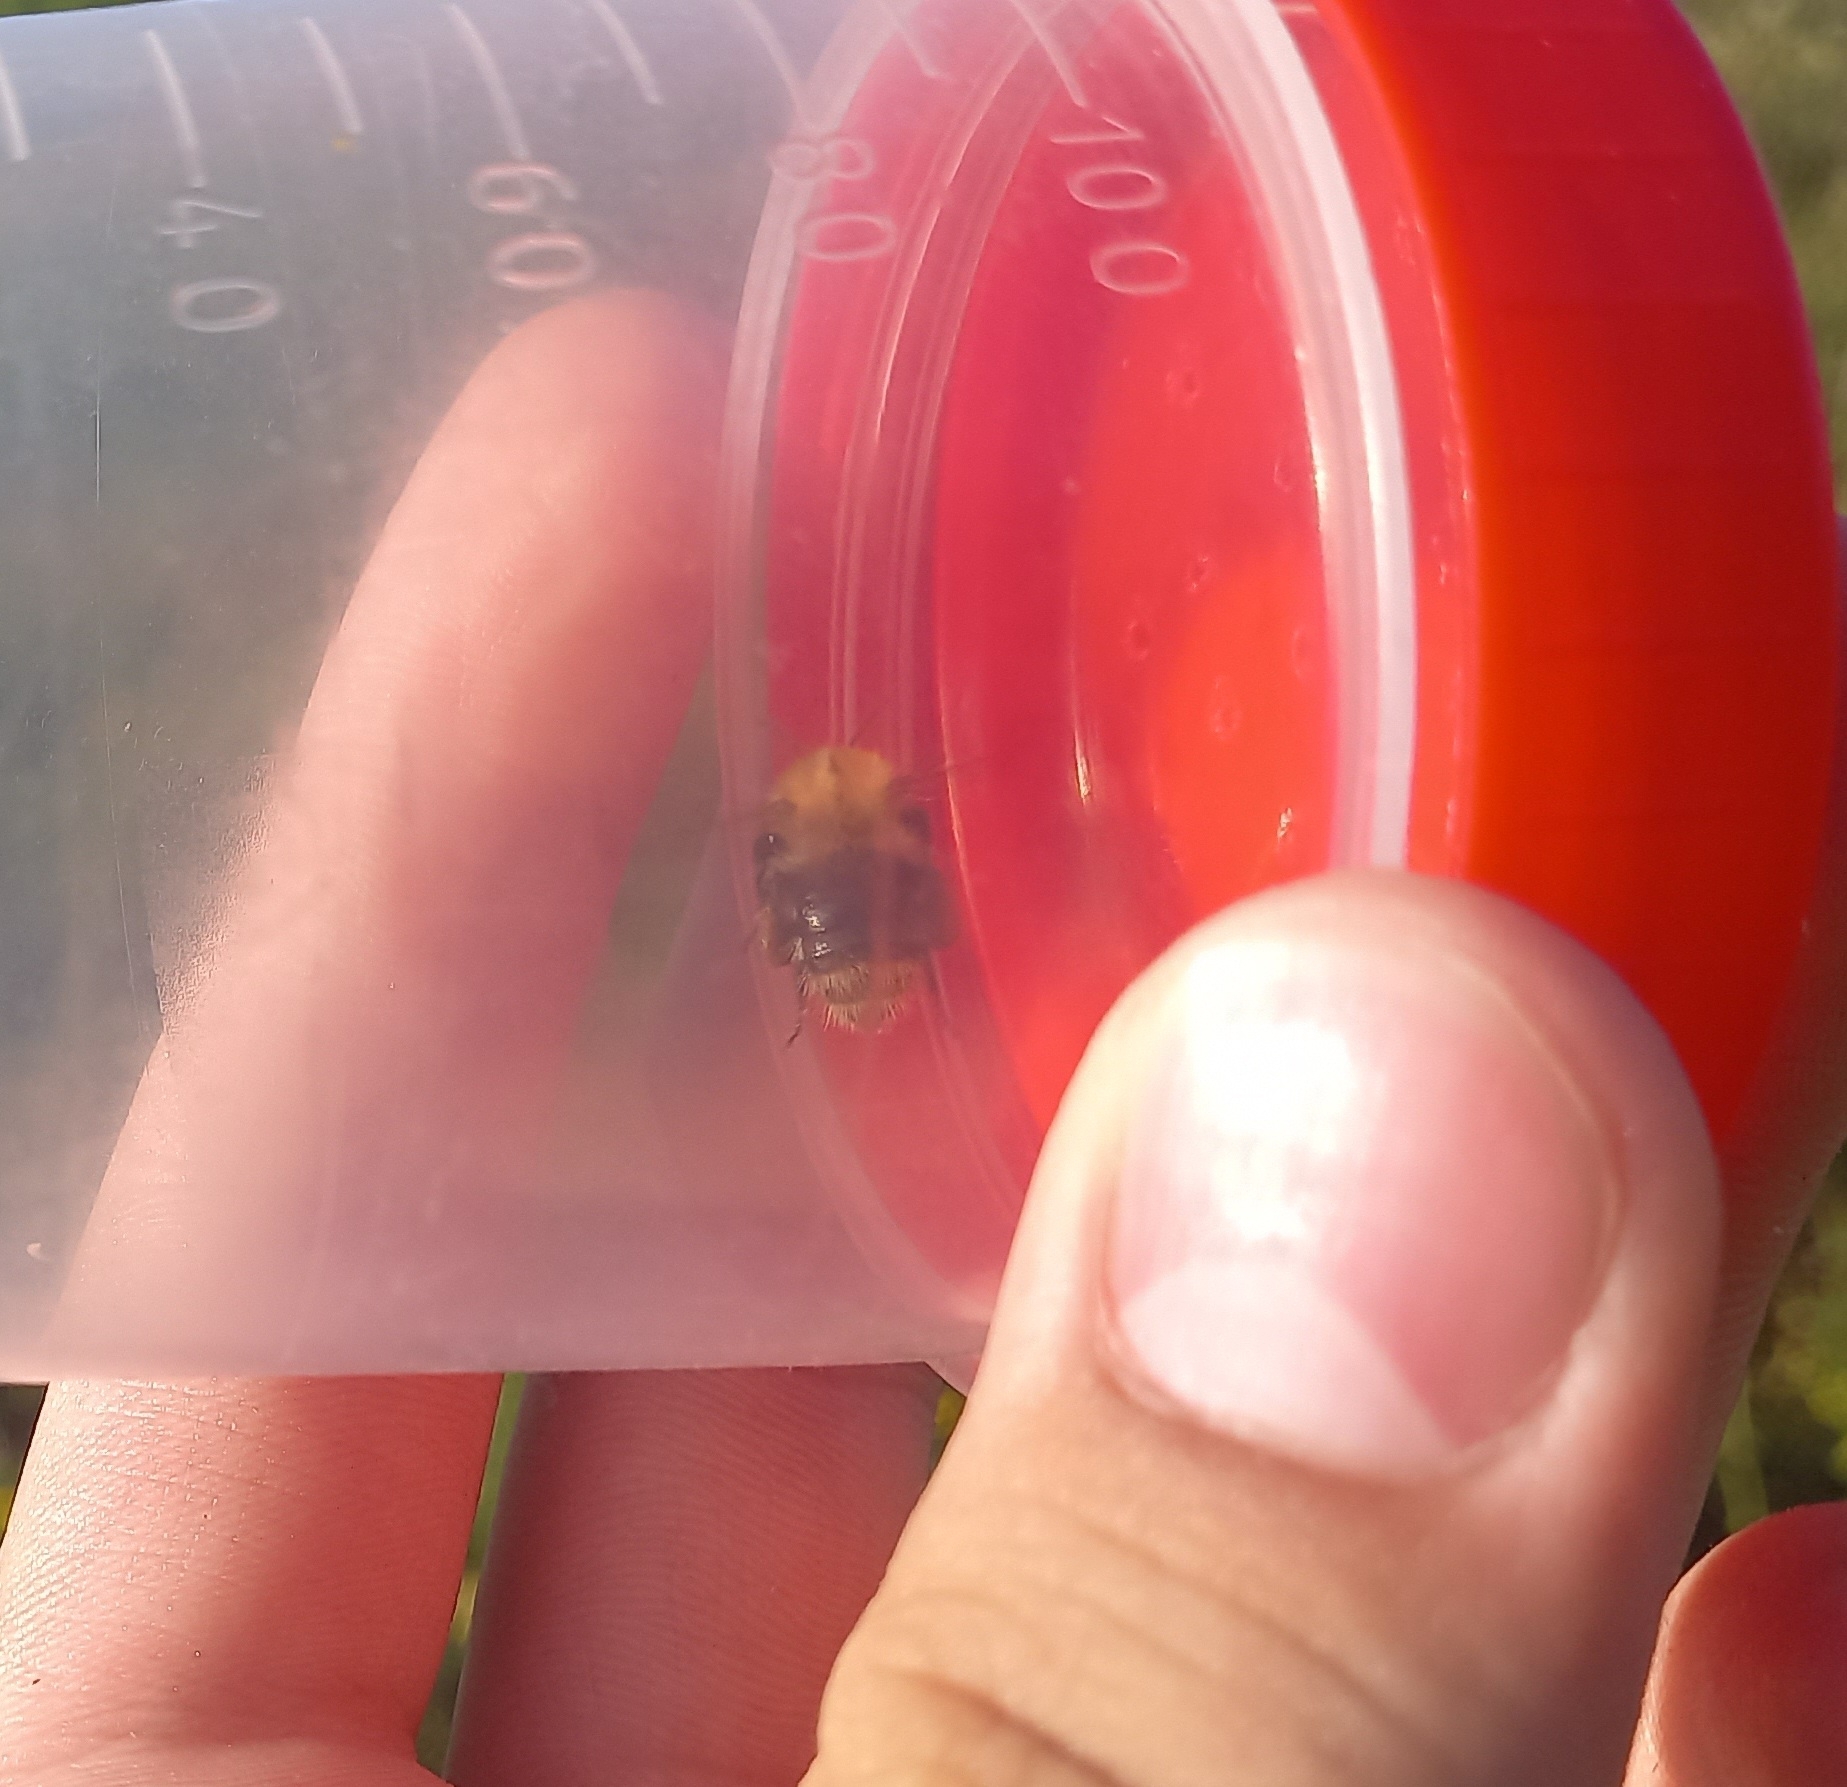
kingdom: Animalia
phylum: Arthropoda
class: Insecta
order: Hymenoptera
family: Apidae
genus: Bombus
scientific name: Bombus pascuorum
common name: Common carder bee
